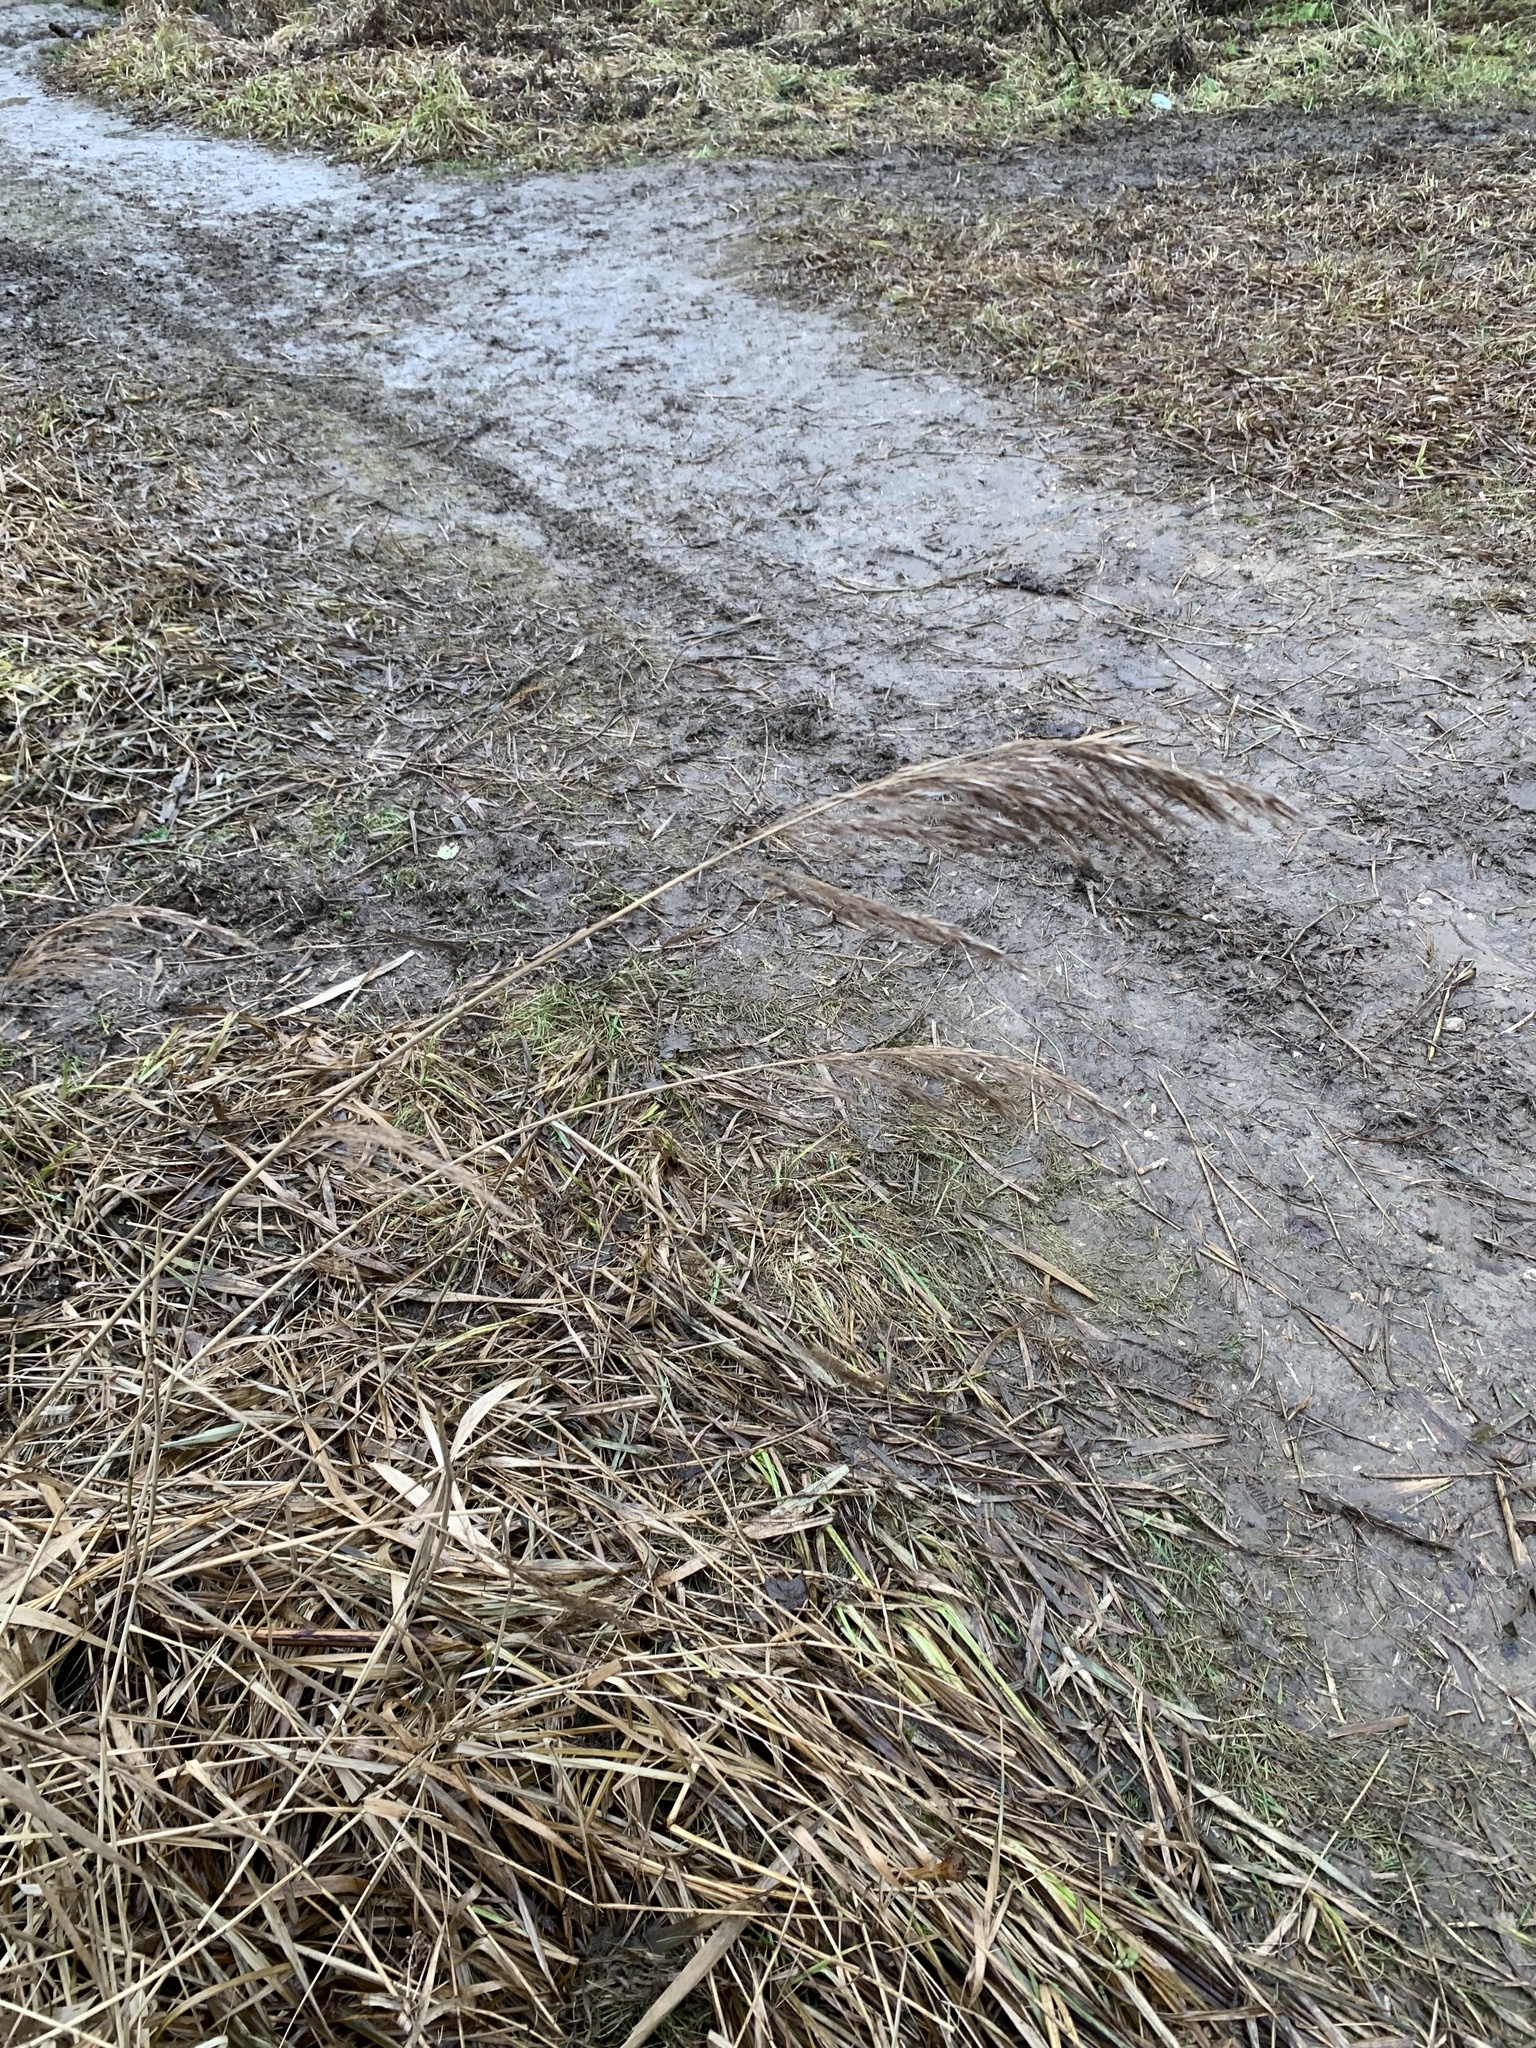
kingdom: Plantae
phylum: Tracheophyta
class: Liliopsida
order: Poales
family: Poaceae
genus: Phragmites
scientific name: Phragmites australis
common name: Common reed
